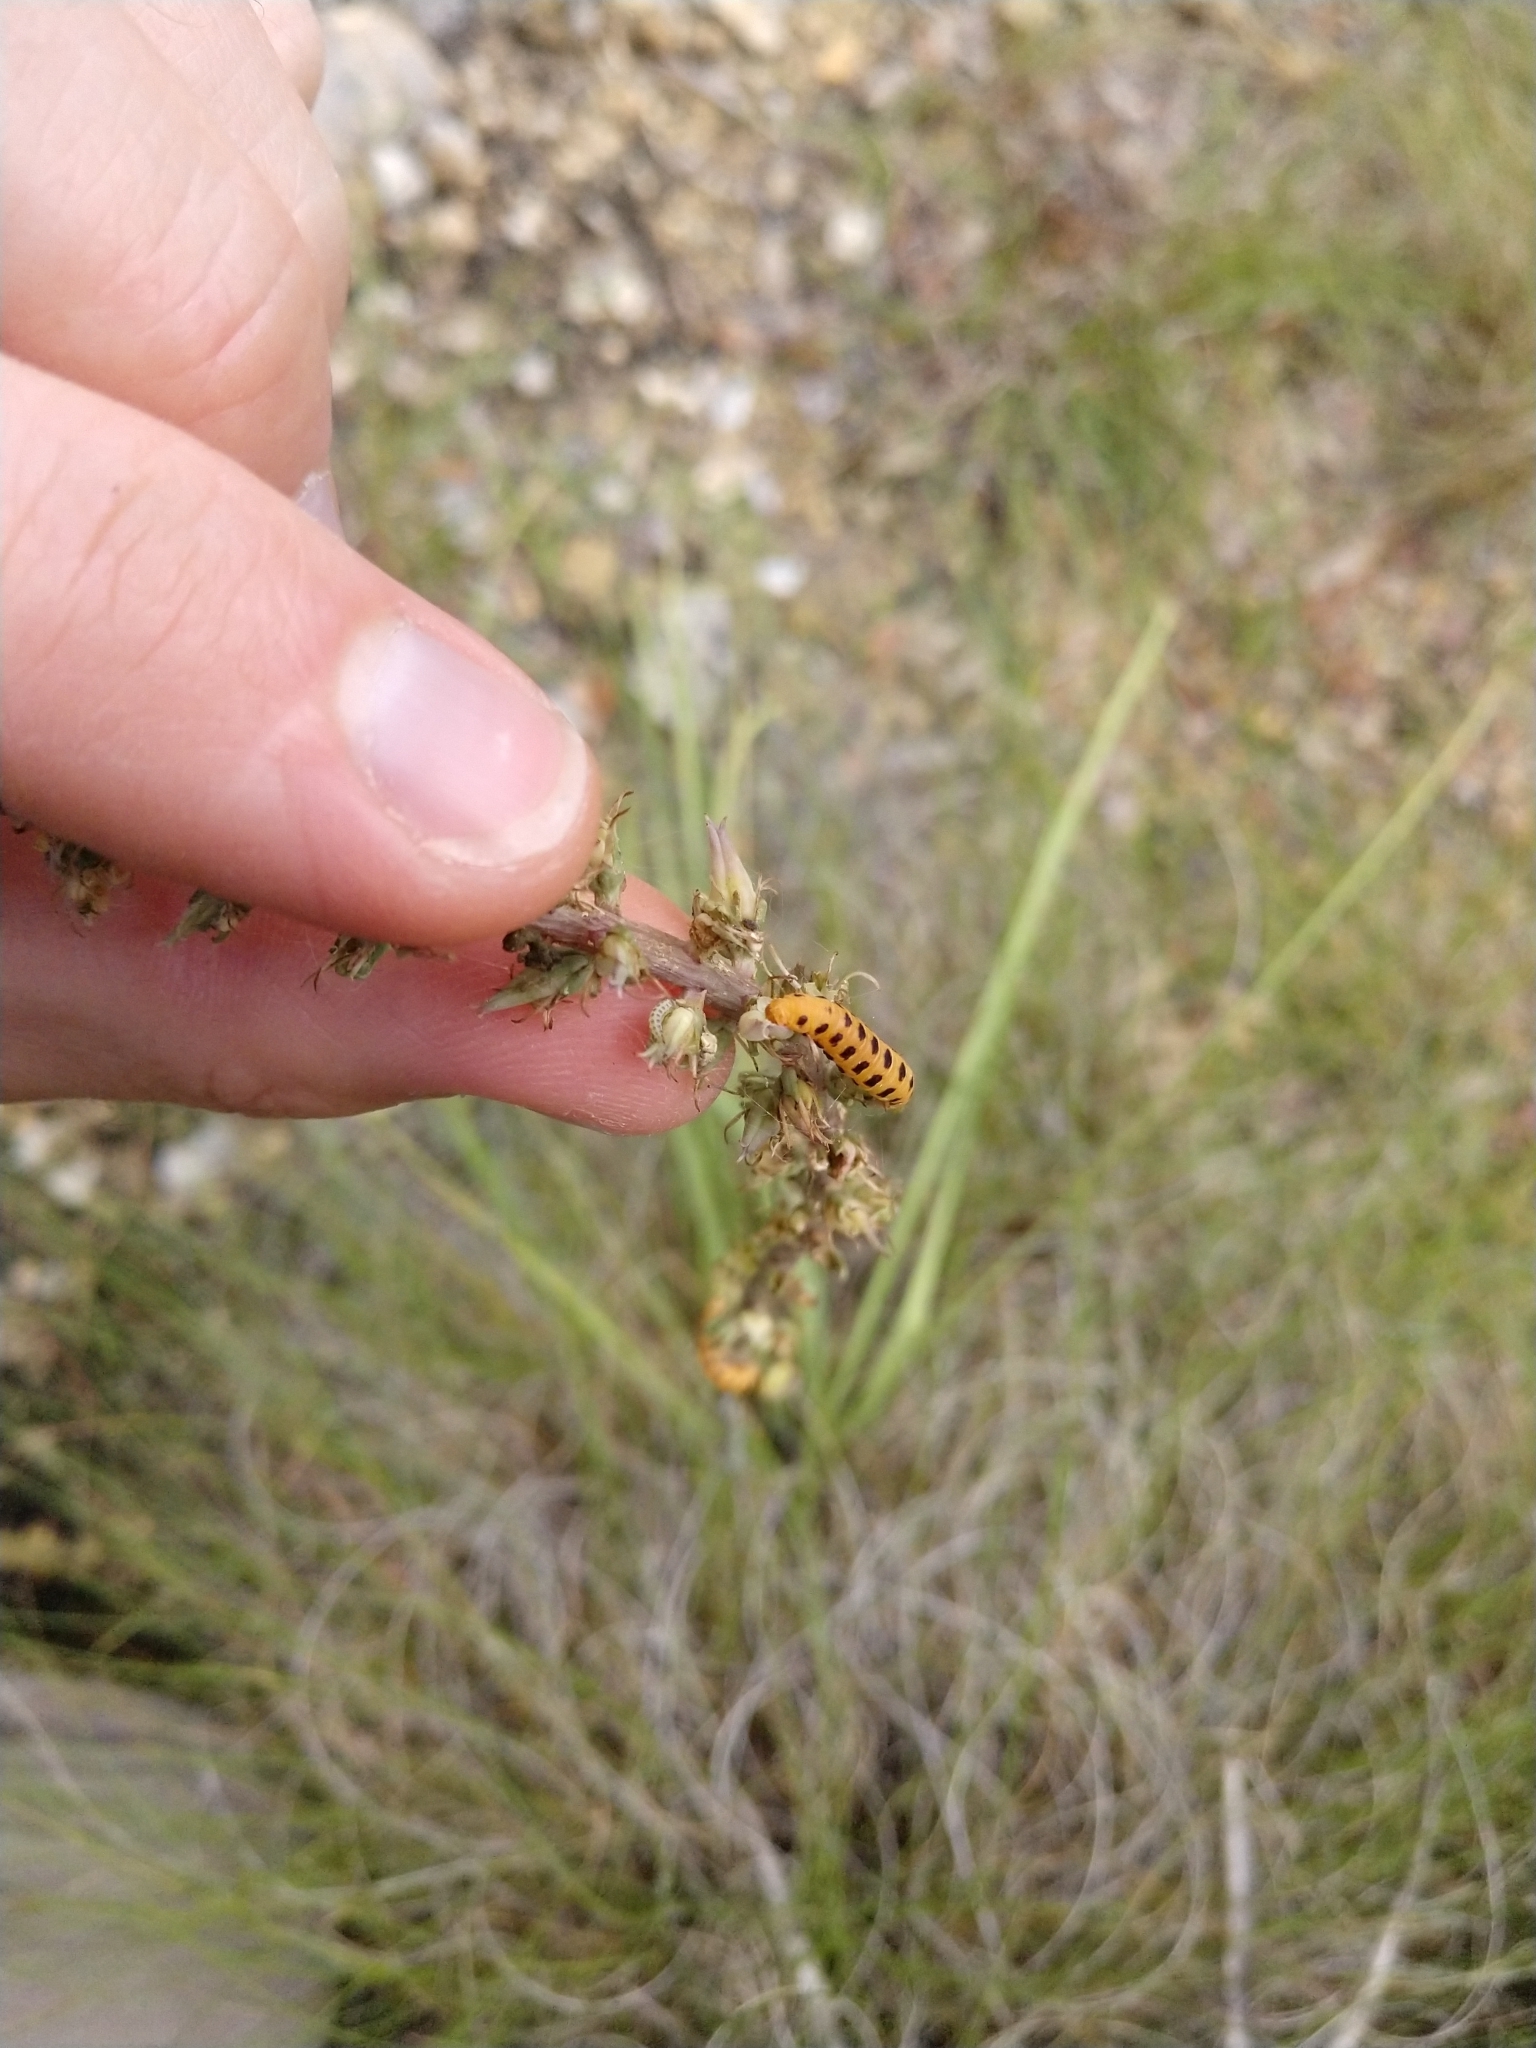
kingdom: Animalia
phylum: Arthropoda
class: Insecta
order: Lepidoptera
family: Geometridae
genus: Eupithecia
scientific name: Eupithecia zygadeniata
